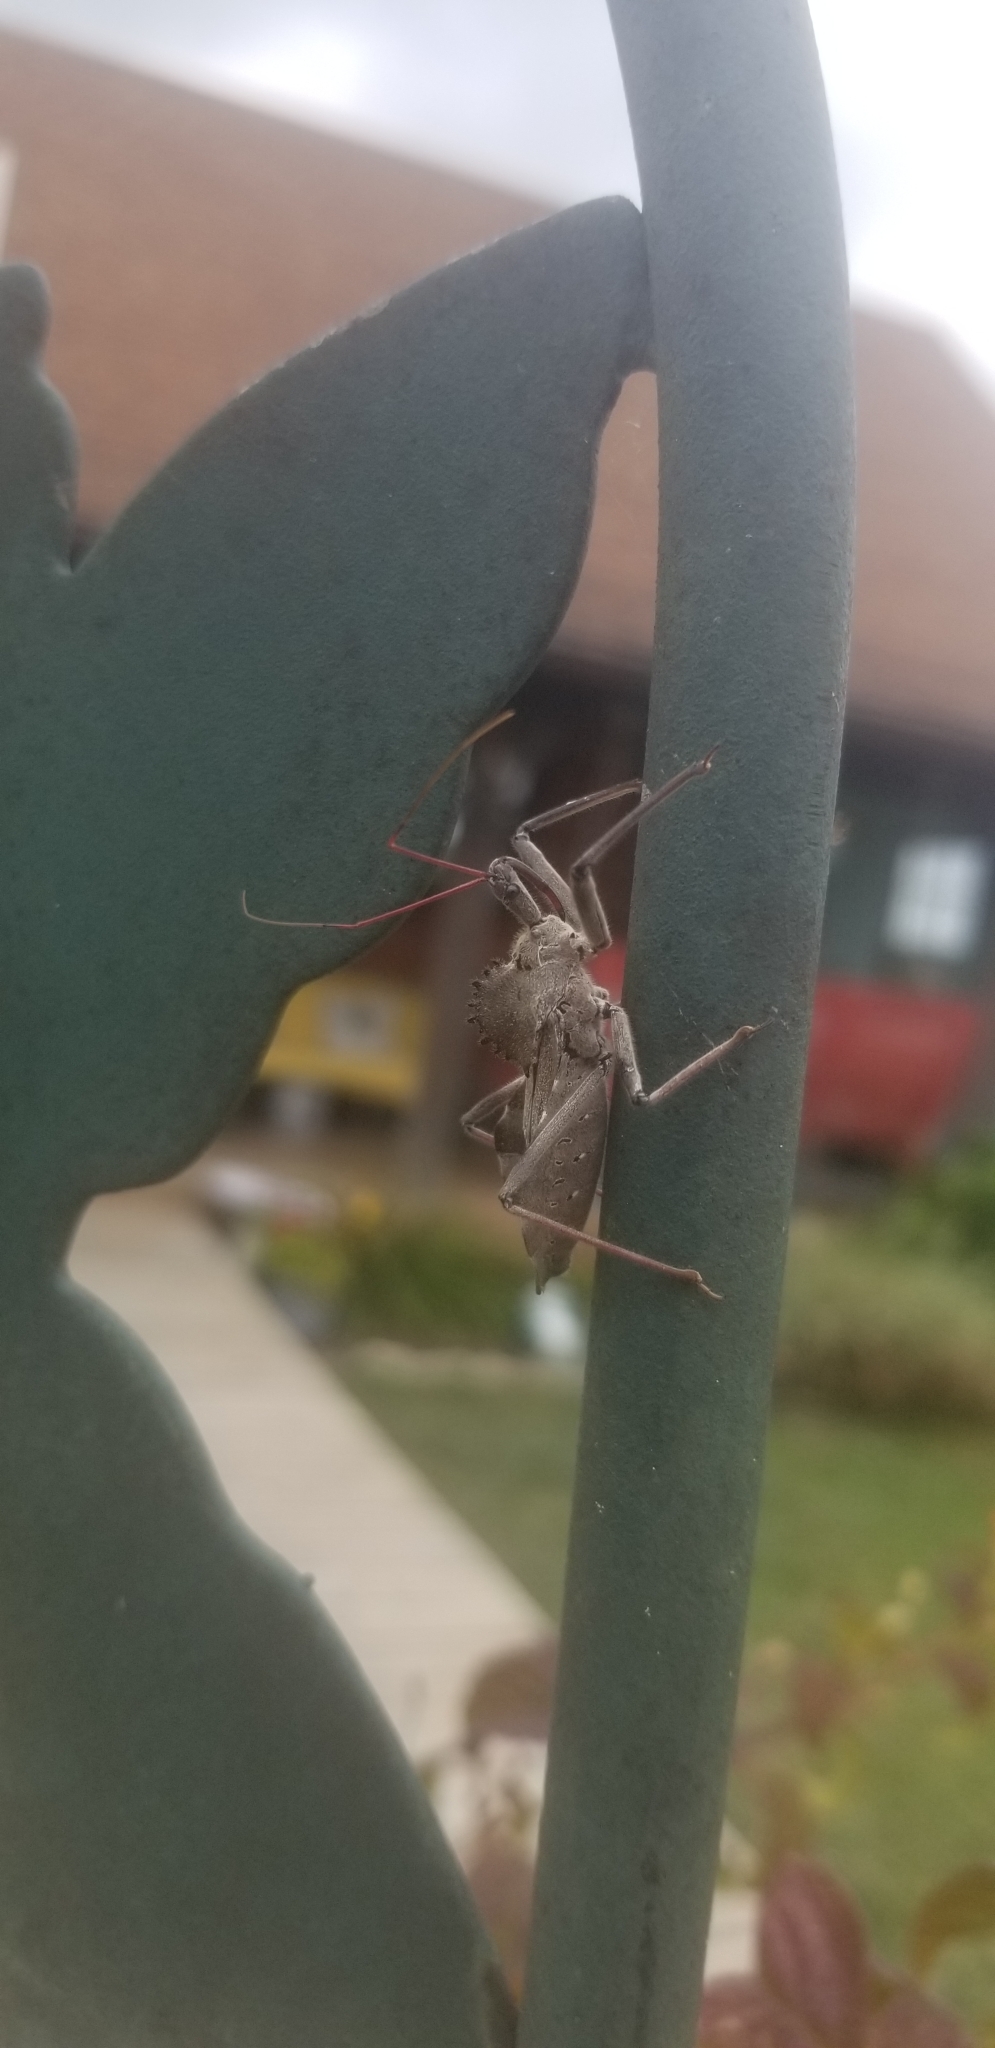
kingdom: Animalia
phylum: Arthropoda
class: Insecta
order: Hemiptera
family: Reduviidae
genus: Arilus
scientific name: Arilus cristatus
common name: North american wheel bug
